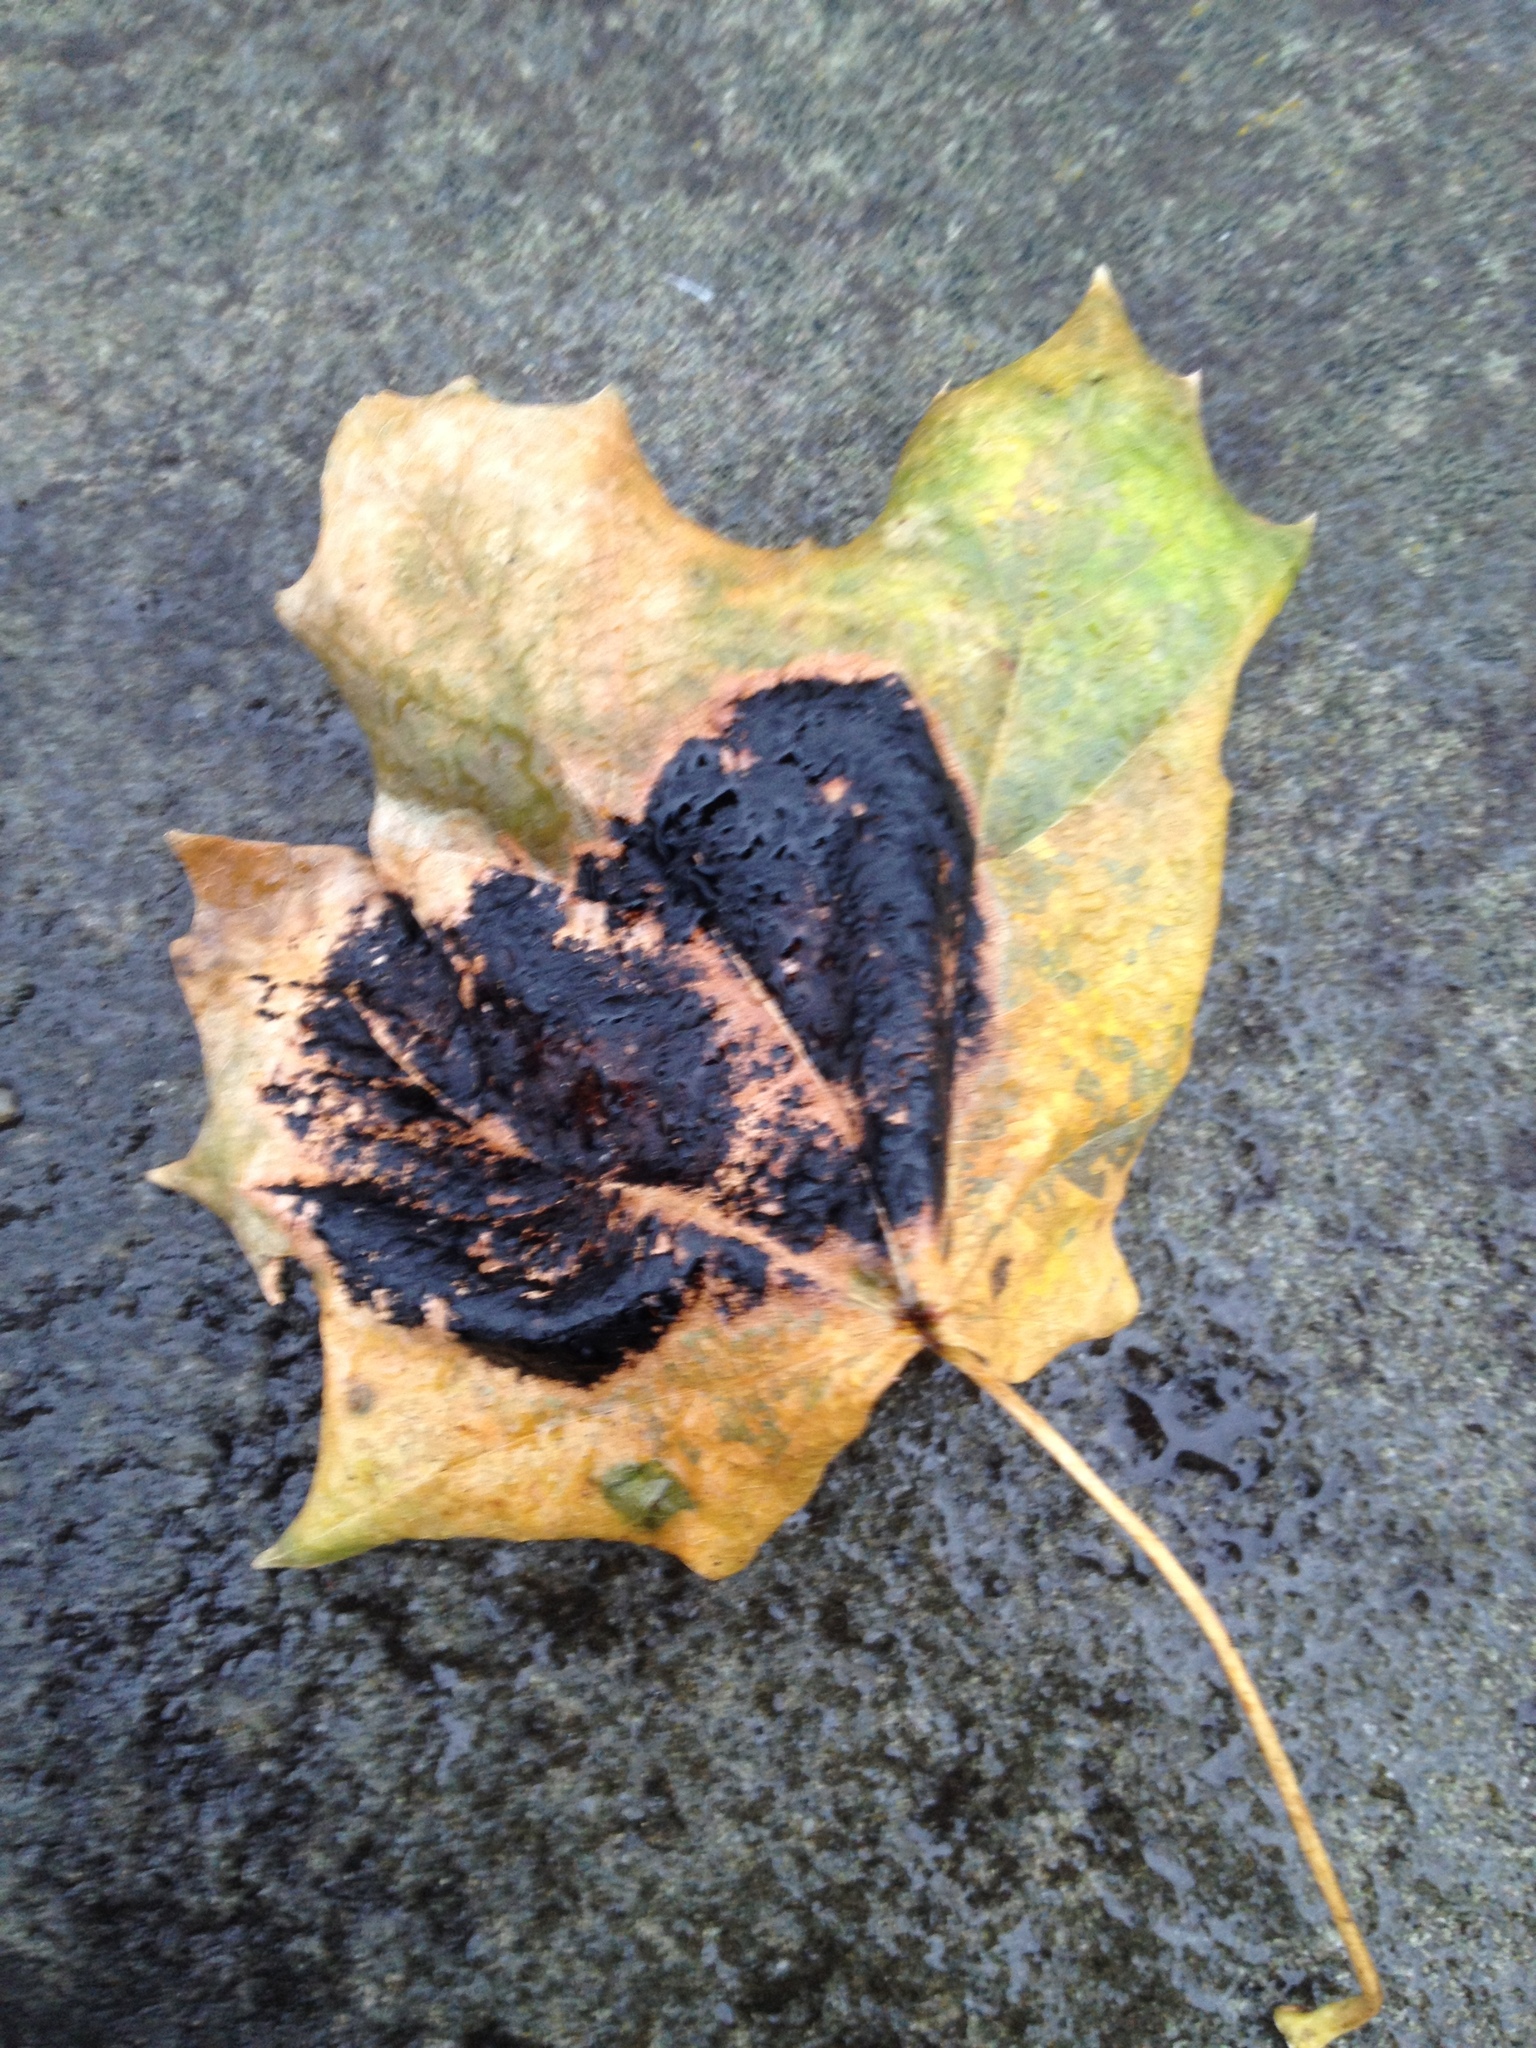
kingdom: Fungi
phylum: Ascomycota
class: Leotiomycetes
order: Rhytismatales
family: Rhytismataceae
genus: Rhytisma
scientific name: Rhytisma acerinum
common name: European tar spot
